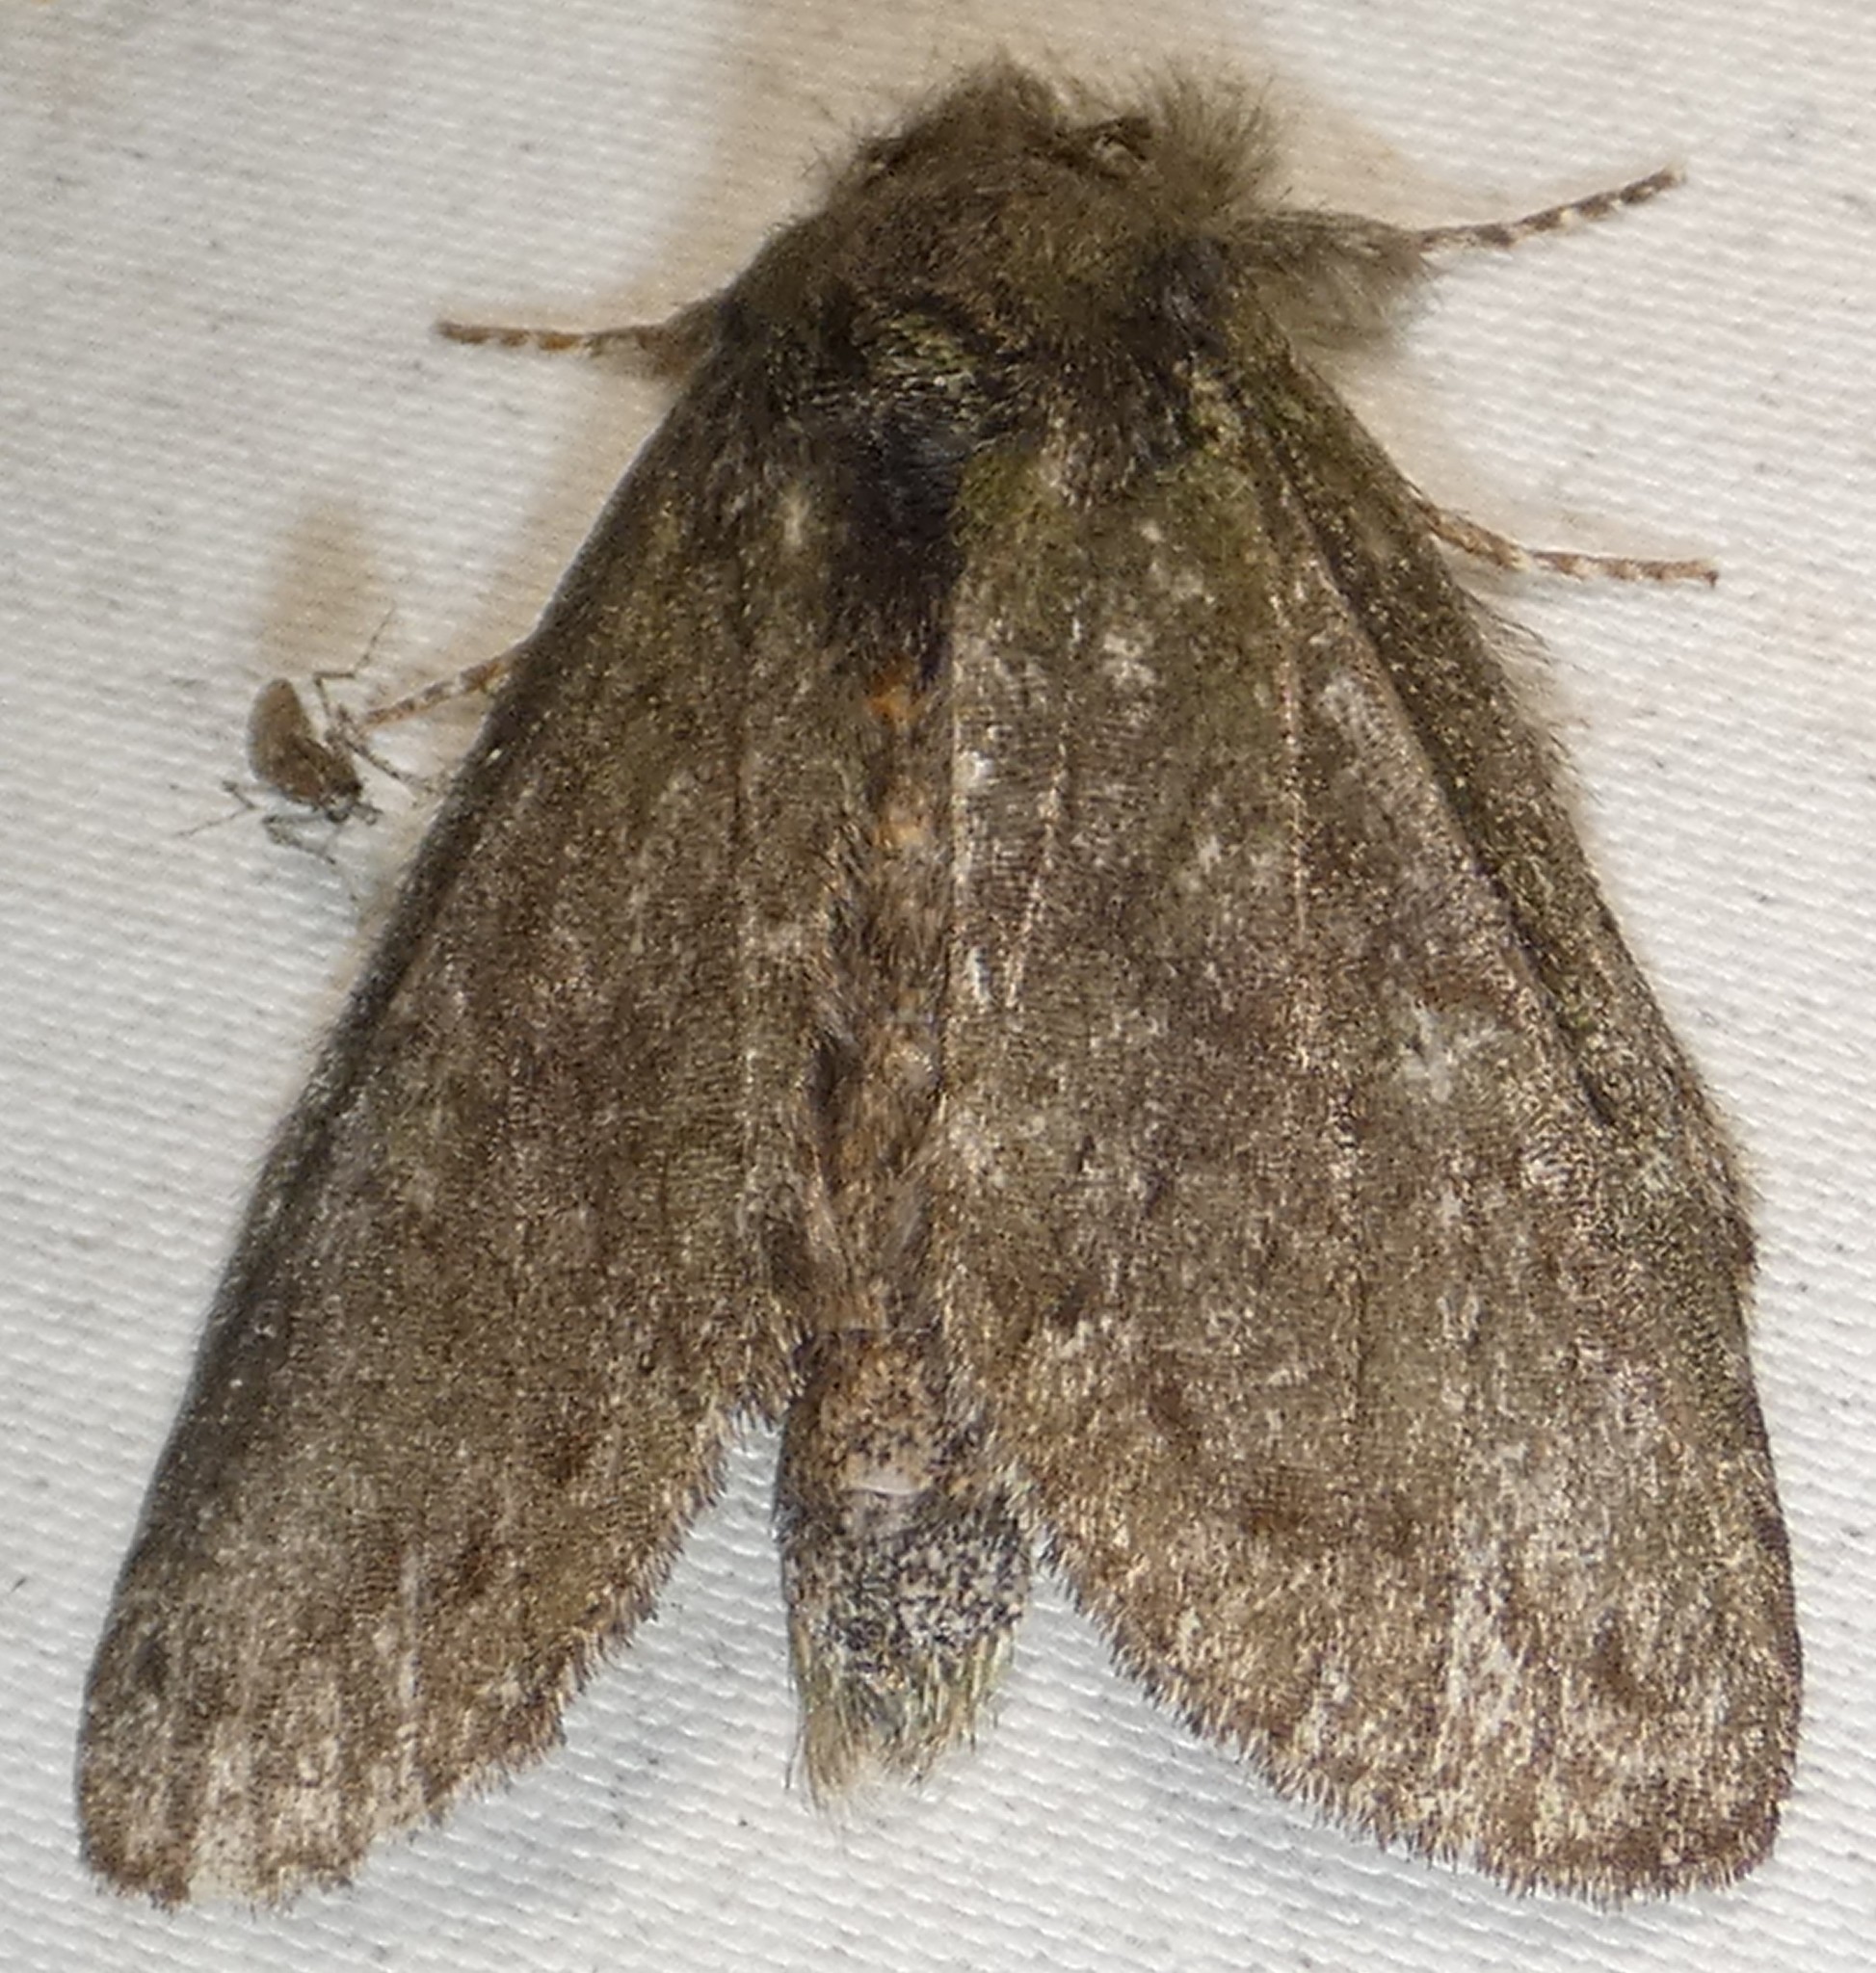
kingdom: Animalia
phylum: Arthropoda
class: Insecta
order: Lepidoptera
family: Notodontidae
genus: Disphragis
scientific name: Disphragis Cecrita guttivitta
